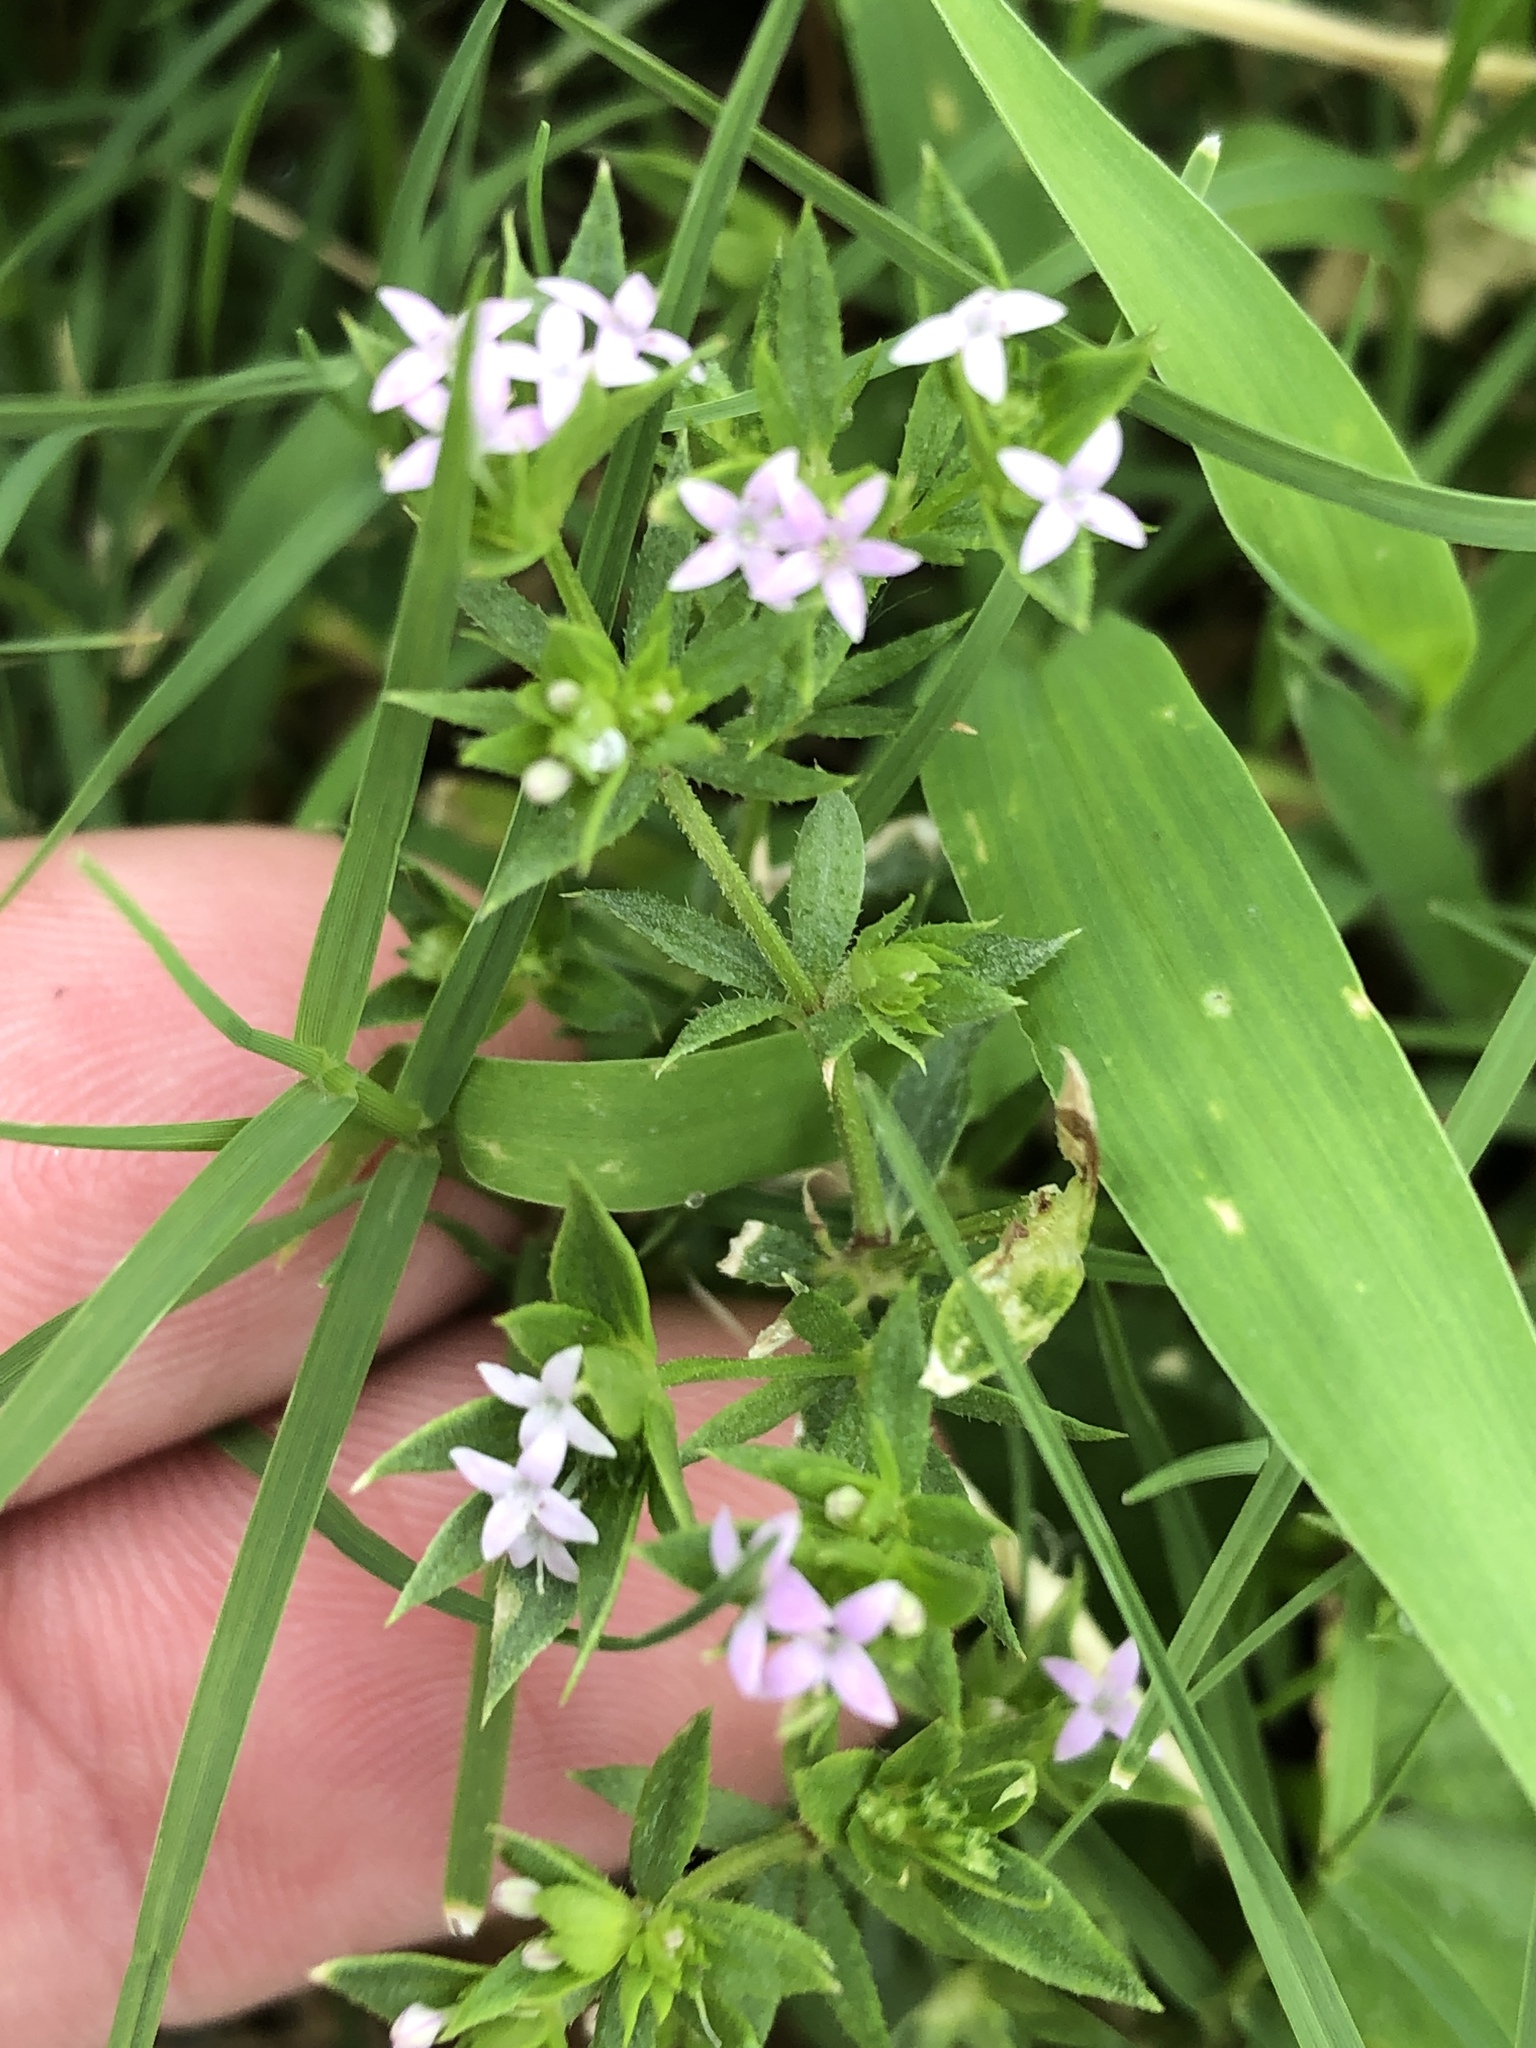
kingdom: Plantae
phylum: Tracheophyta
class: Magnoliopsida
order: Gentianales
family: Rubiaceae
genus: Sherardia
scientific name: Sherardia arvensis
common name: Field madder
